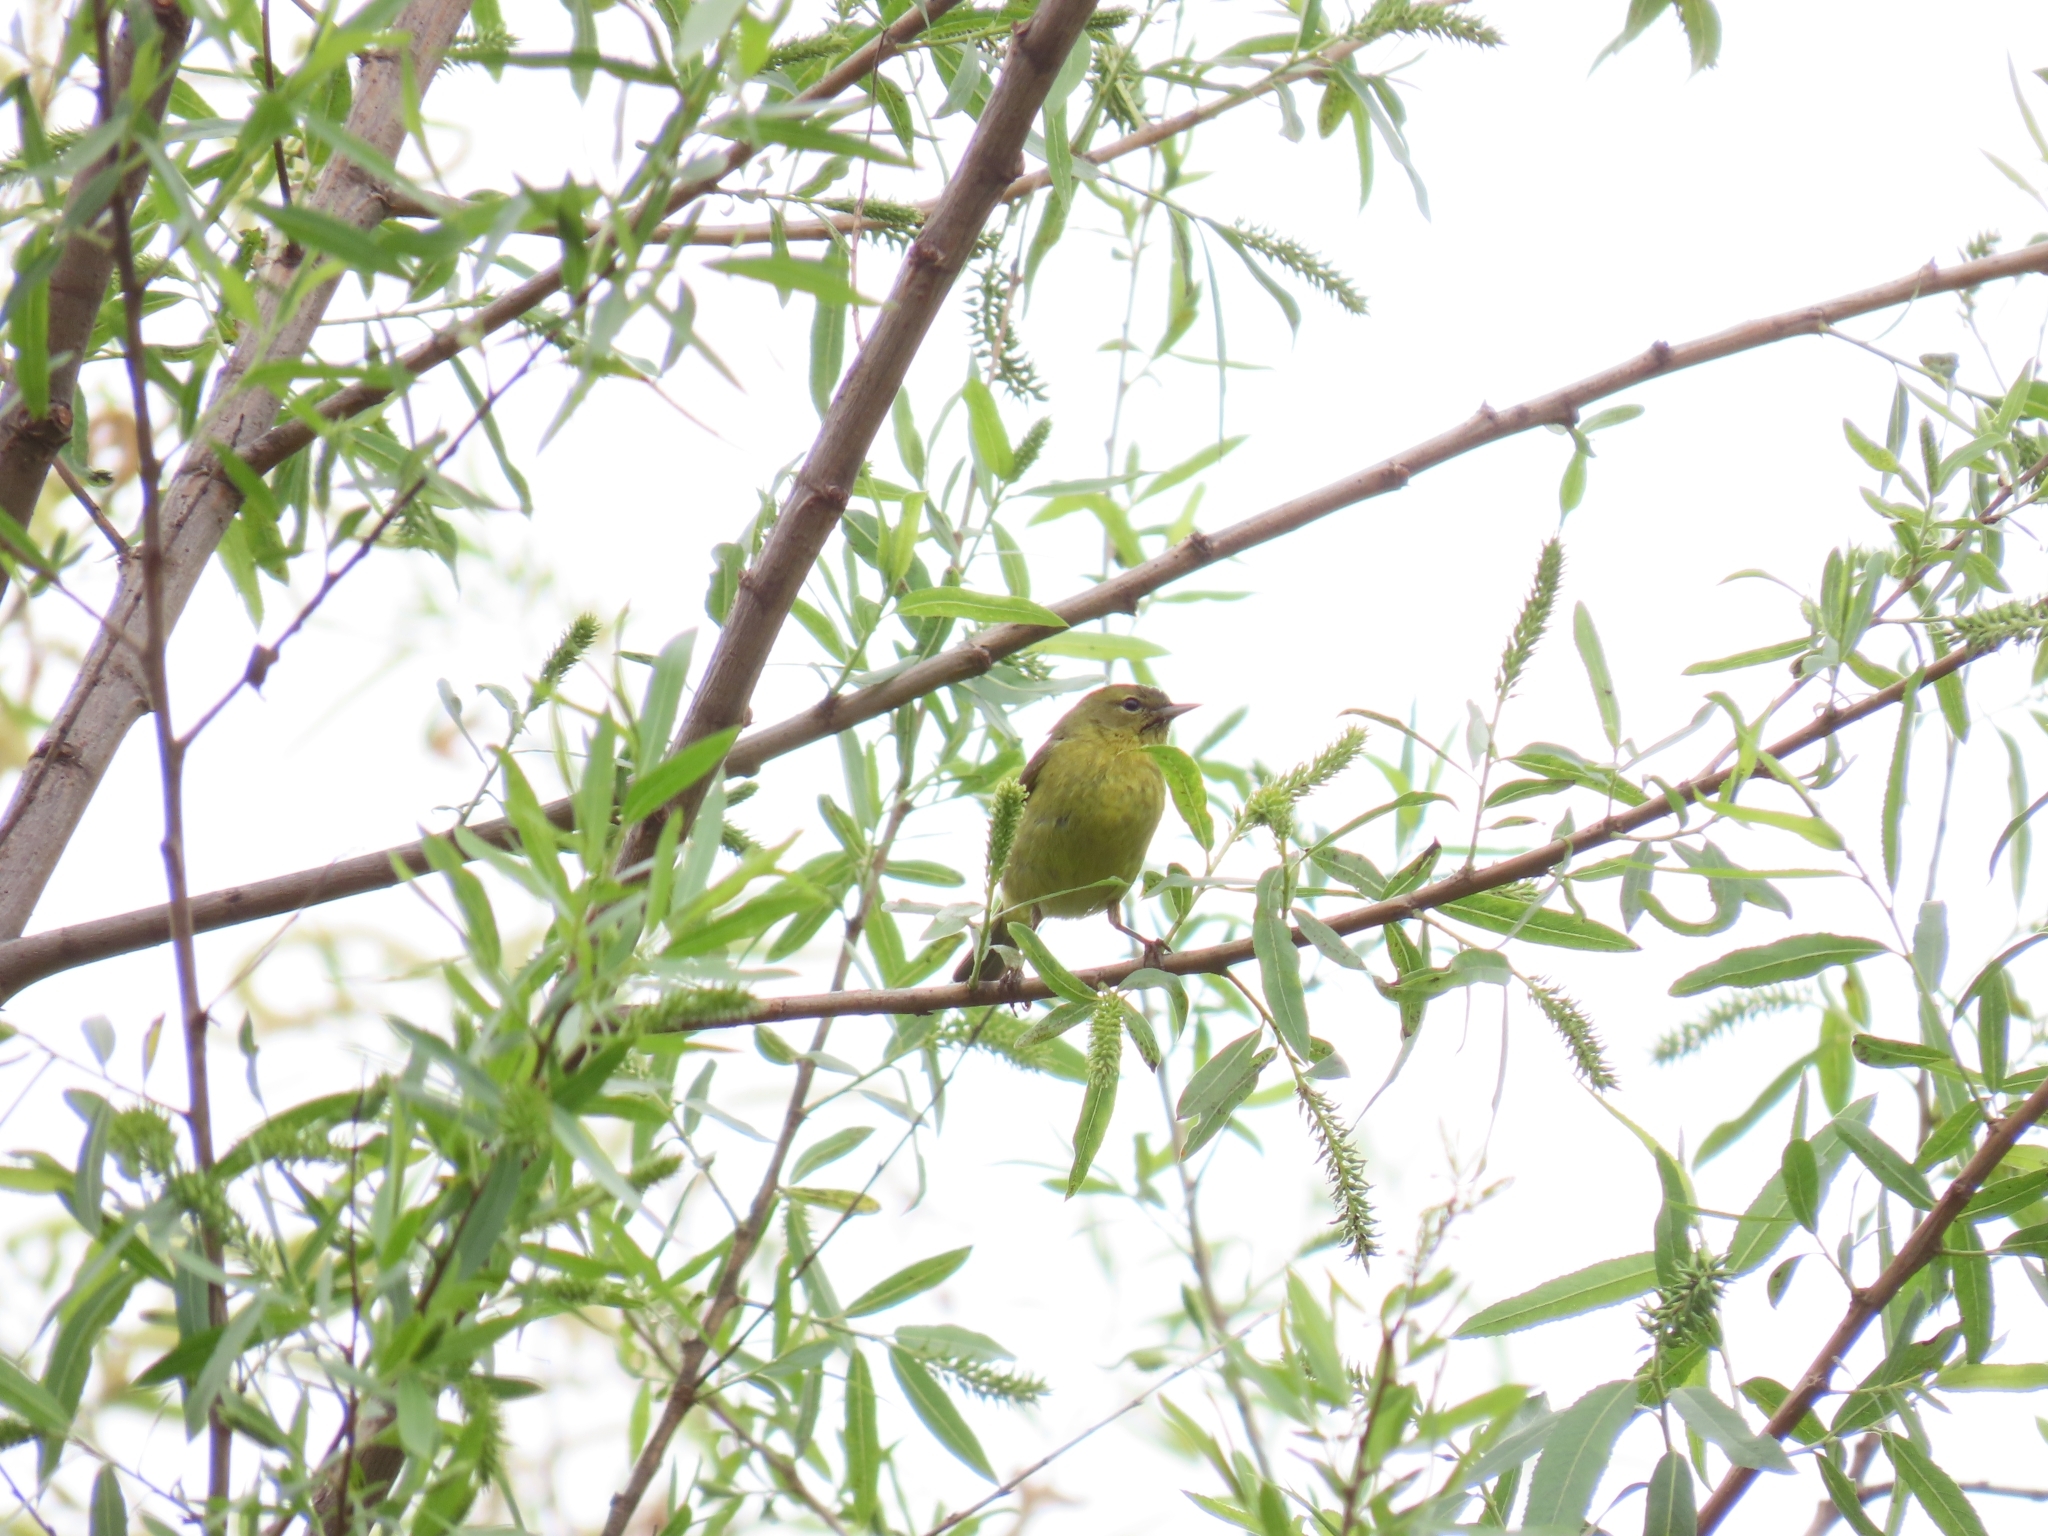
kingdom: Animalia
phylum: Chordata
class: Aves
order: Passeriformes
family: Parulidae
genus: Leiothlypis
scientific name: Leiothlypis celata
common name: Orange-crowned warbler
